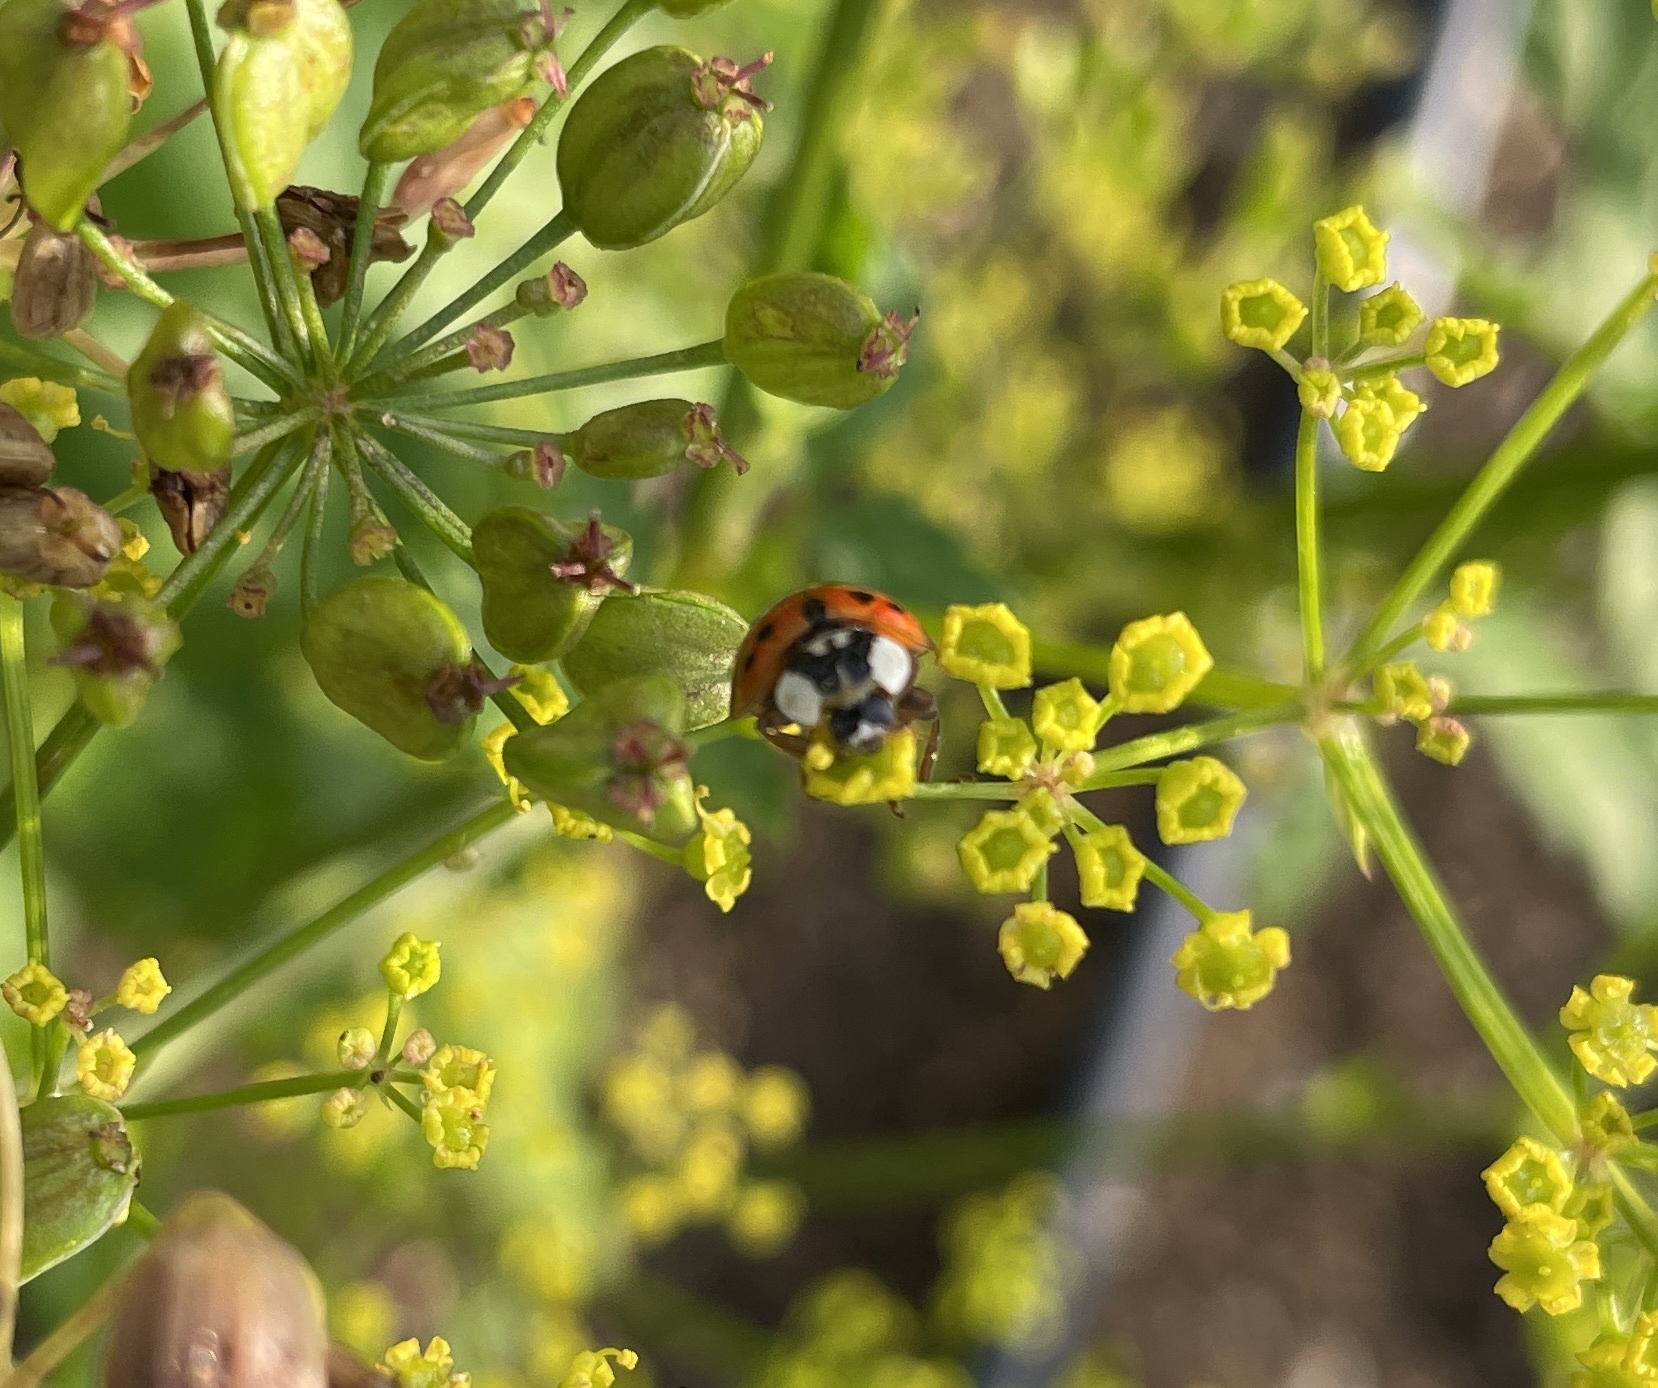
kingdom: Animalia
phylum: Arthropoda
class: Insecta
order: Coleoptera
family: Coccinellidae
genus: Harmonia
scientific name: Harmonia axyridis
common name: Harlequin ladybird
